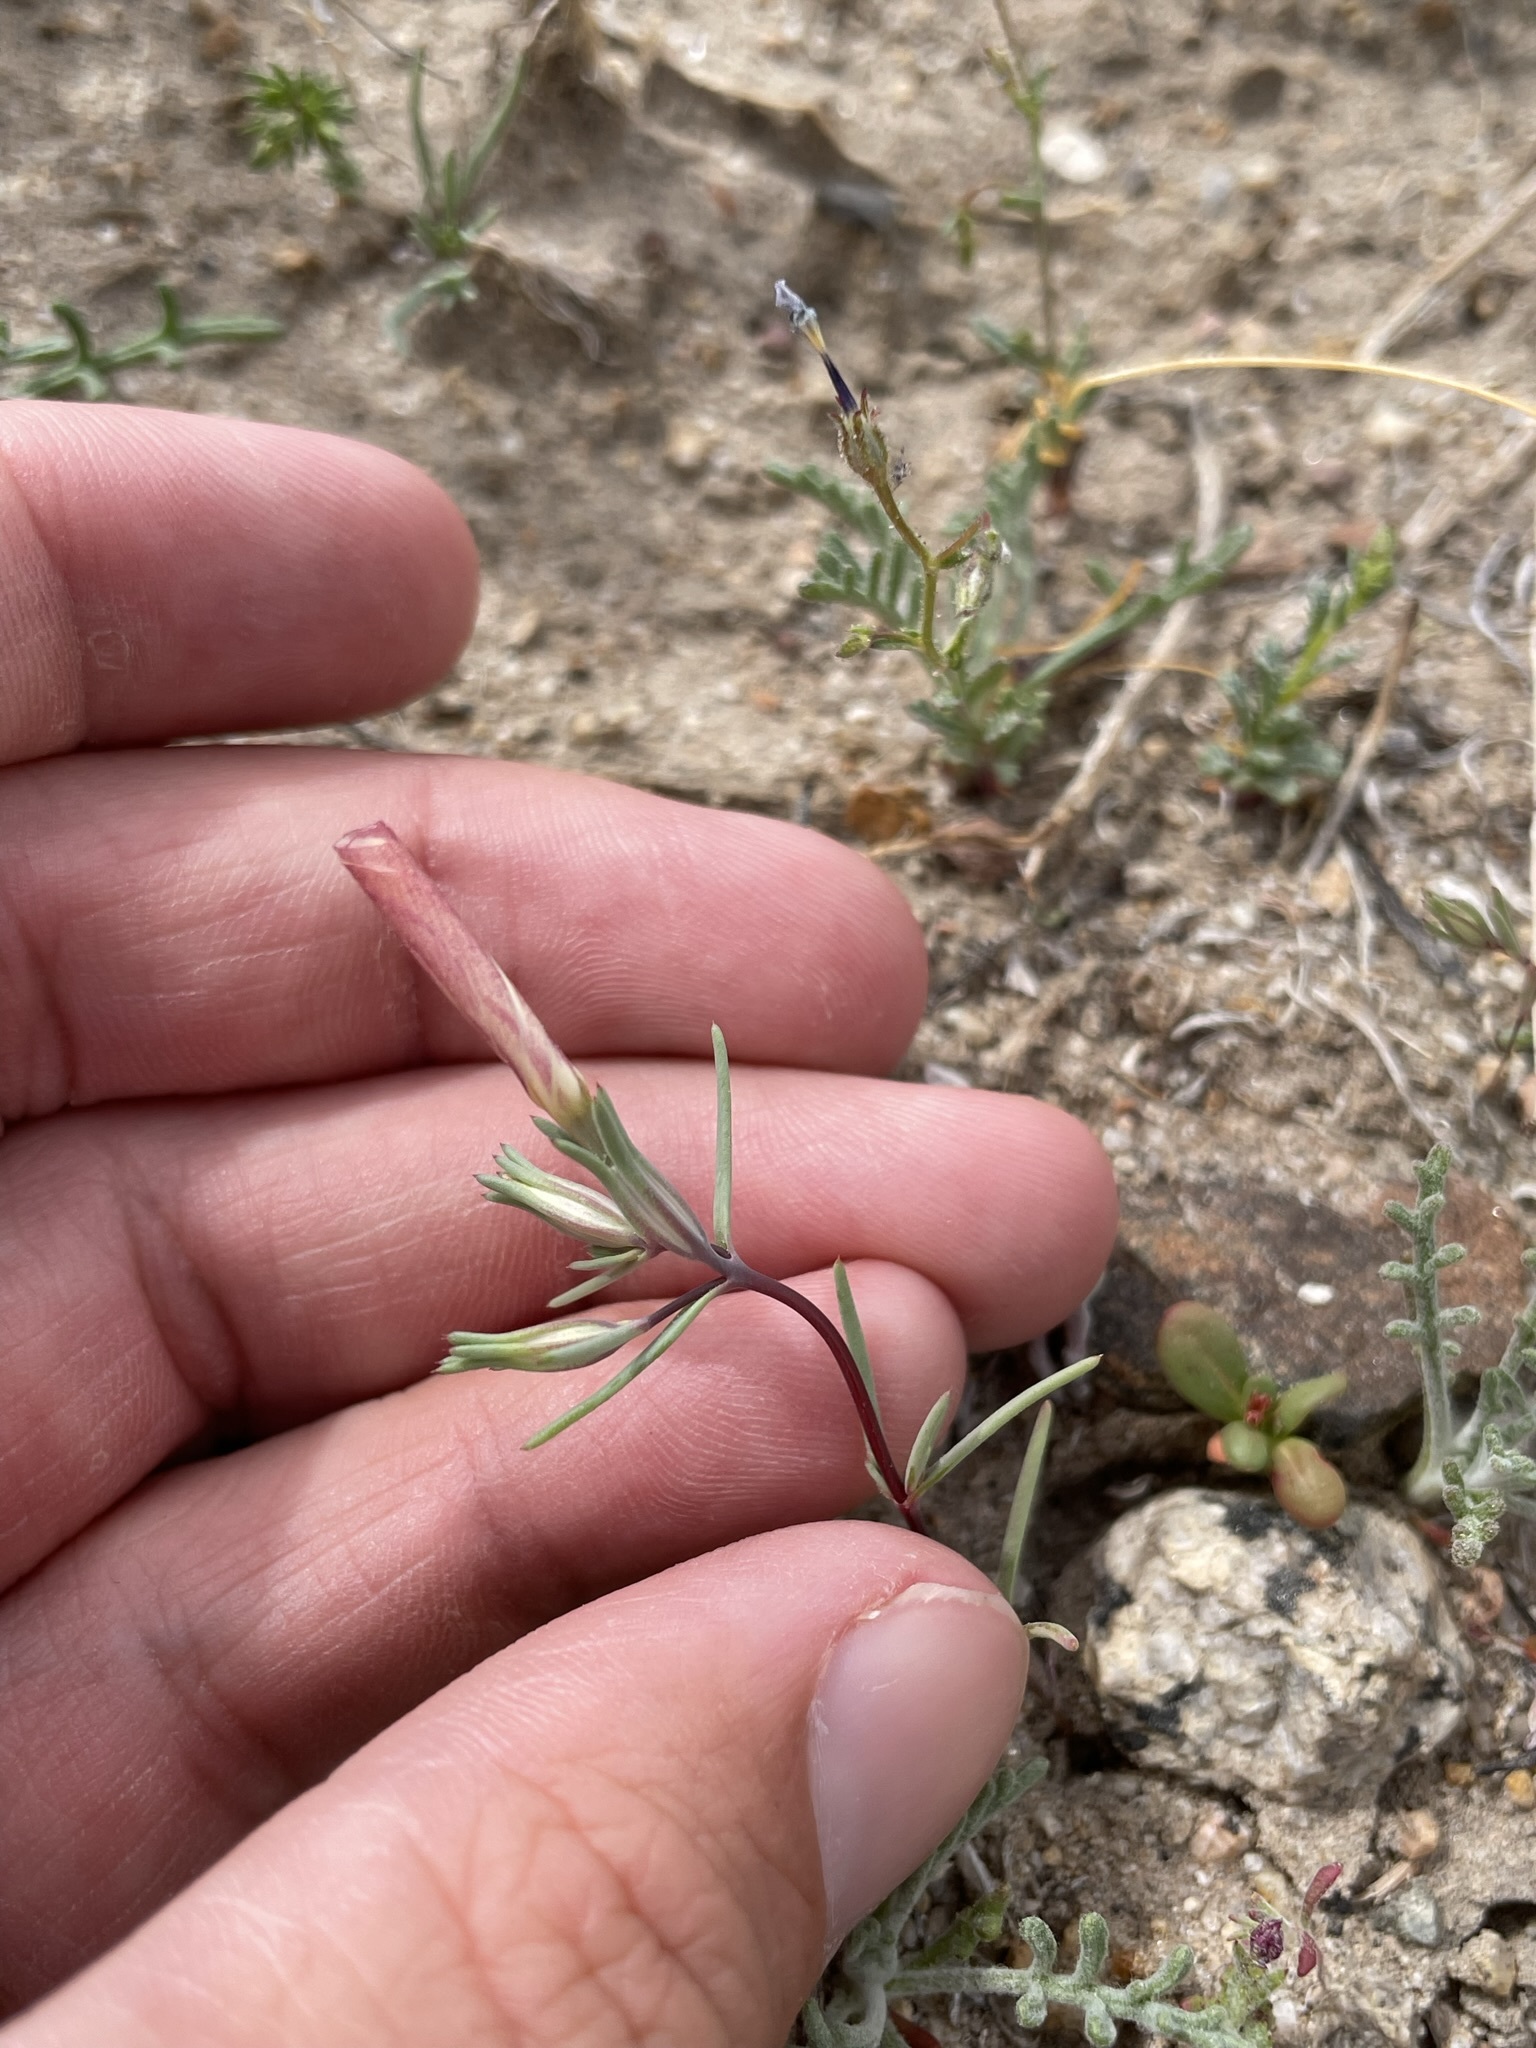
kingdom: Plantae
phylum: Tracheophyta
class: Magnoliopsida
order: Ericales
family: Polemoniaceae
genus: Linanthus
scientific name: Linanthus dichotomus
